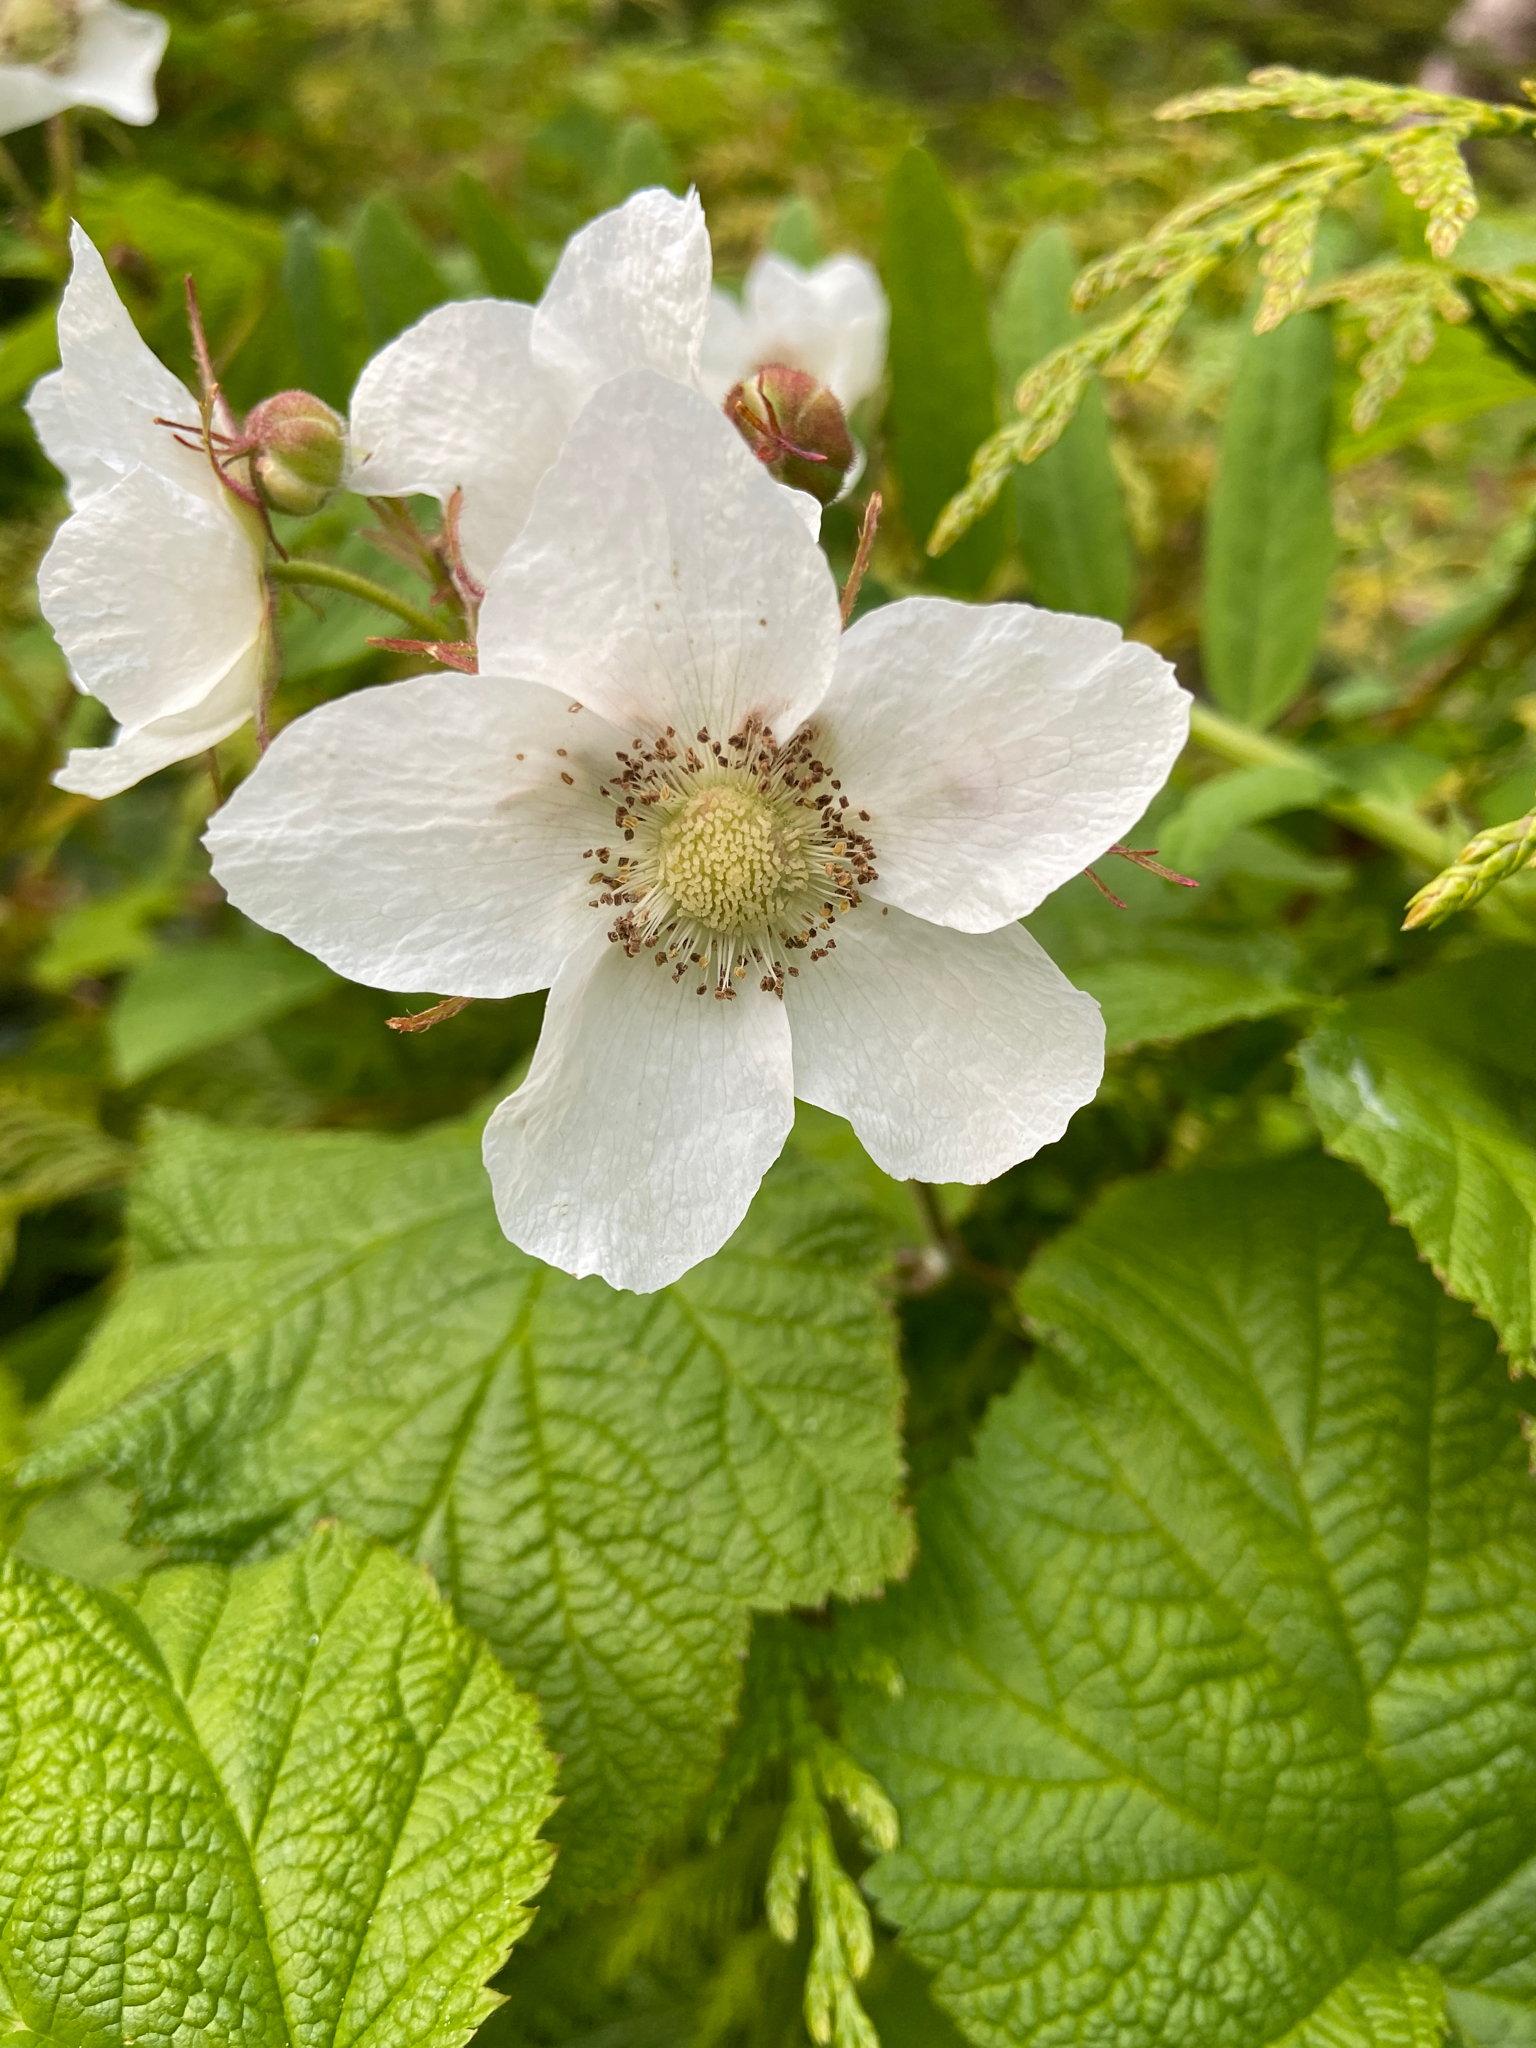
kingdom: Plantae
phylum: Tracheophyta
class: Magnoliopsida
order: Rosales
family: Rosaceae
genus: Rubus
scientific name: Rubus parviflorus
